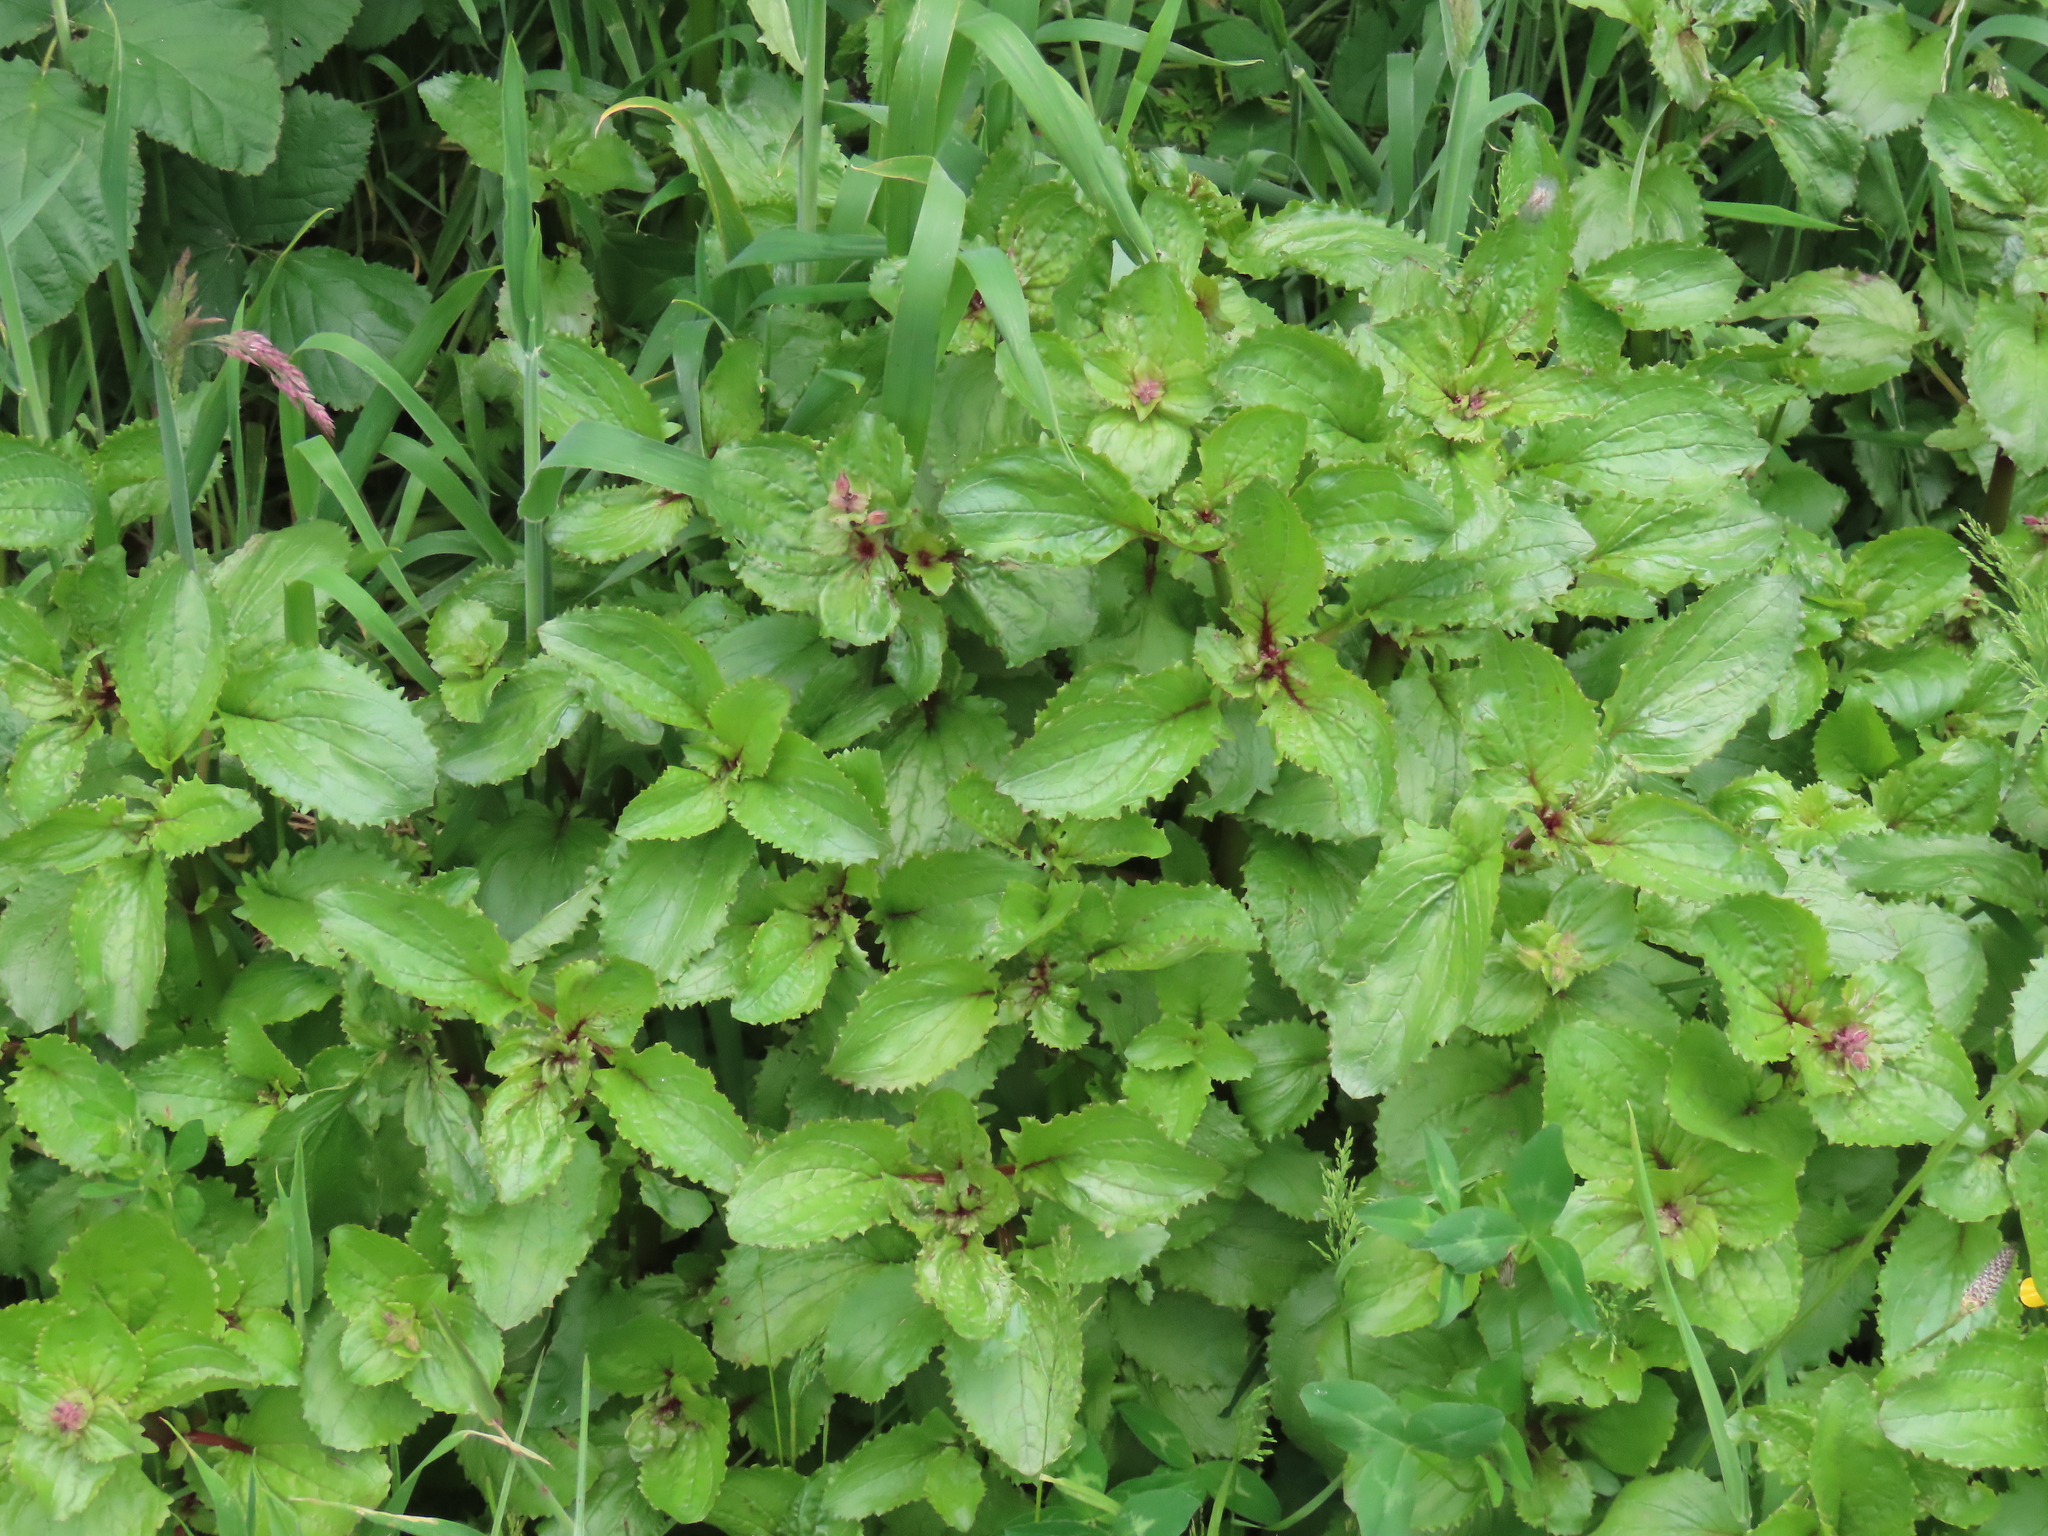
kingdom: Plantae
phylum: Tracheophyta
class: Magnoliopsida
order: Lamiales
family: Phrymaceae
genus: Erythranthe
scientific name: Erythranthe guttata
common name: Monkeyflower
